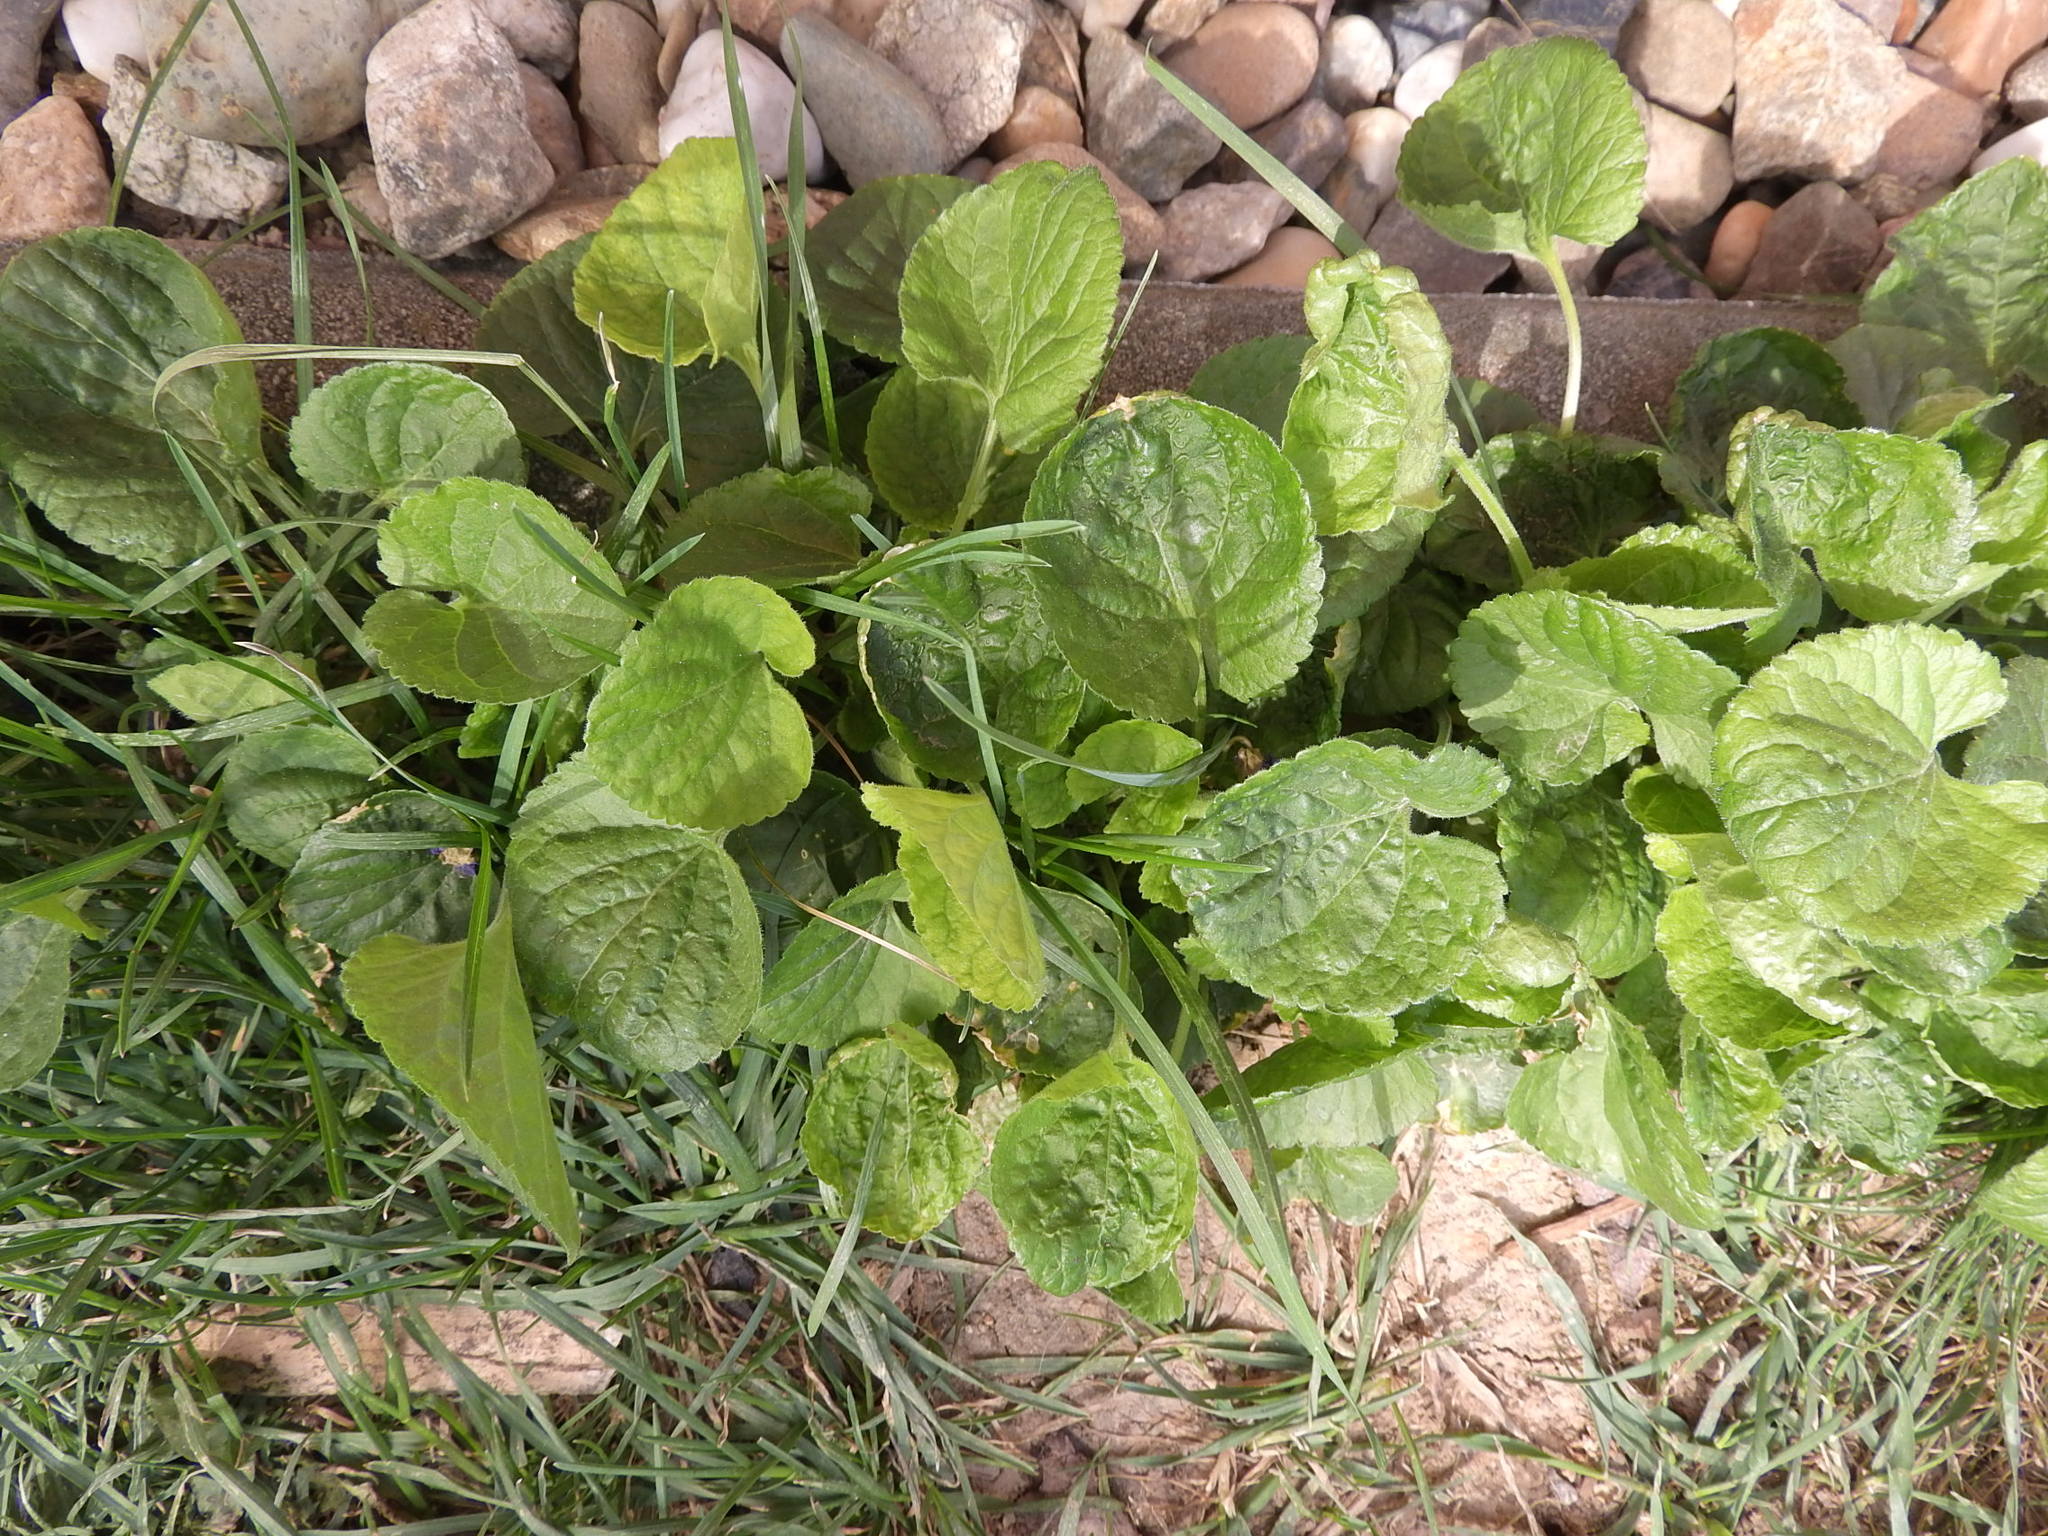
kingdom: Plantae
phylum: Tracheophyta
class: Magnoliopsida
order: Malpighiales
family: Violaceae
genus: Viola
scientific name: Viola odorata
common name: Sweet violet
